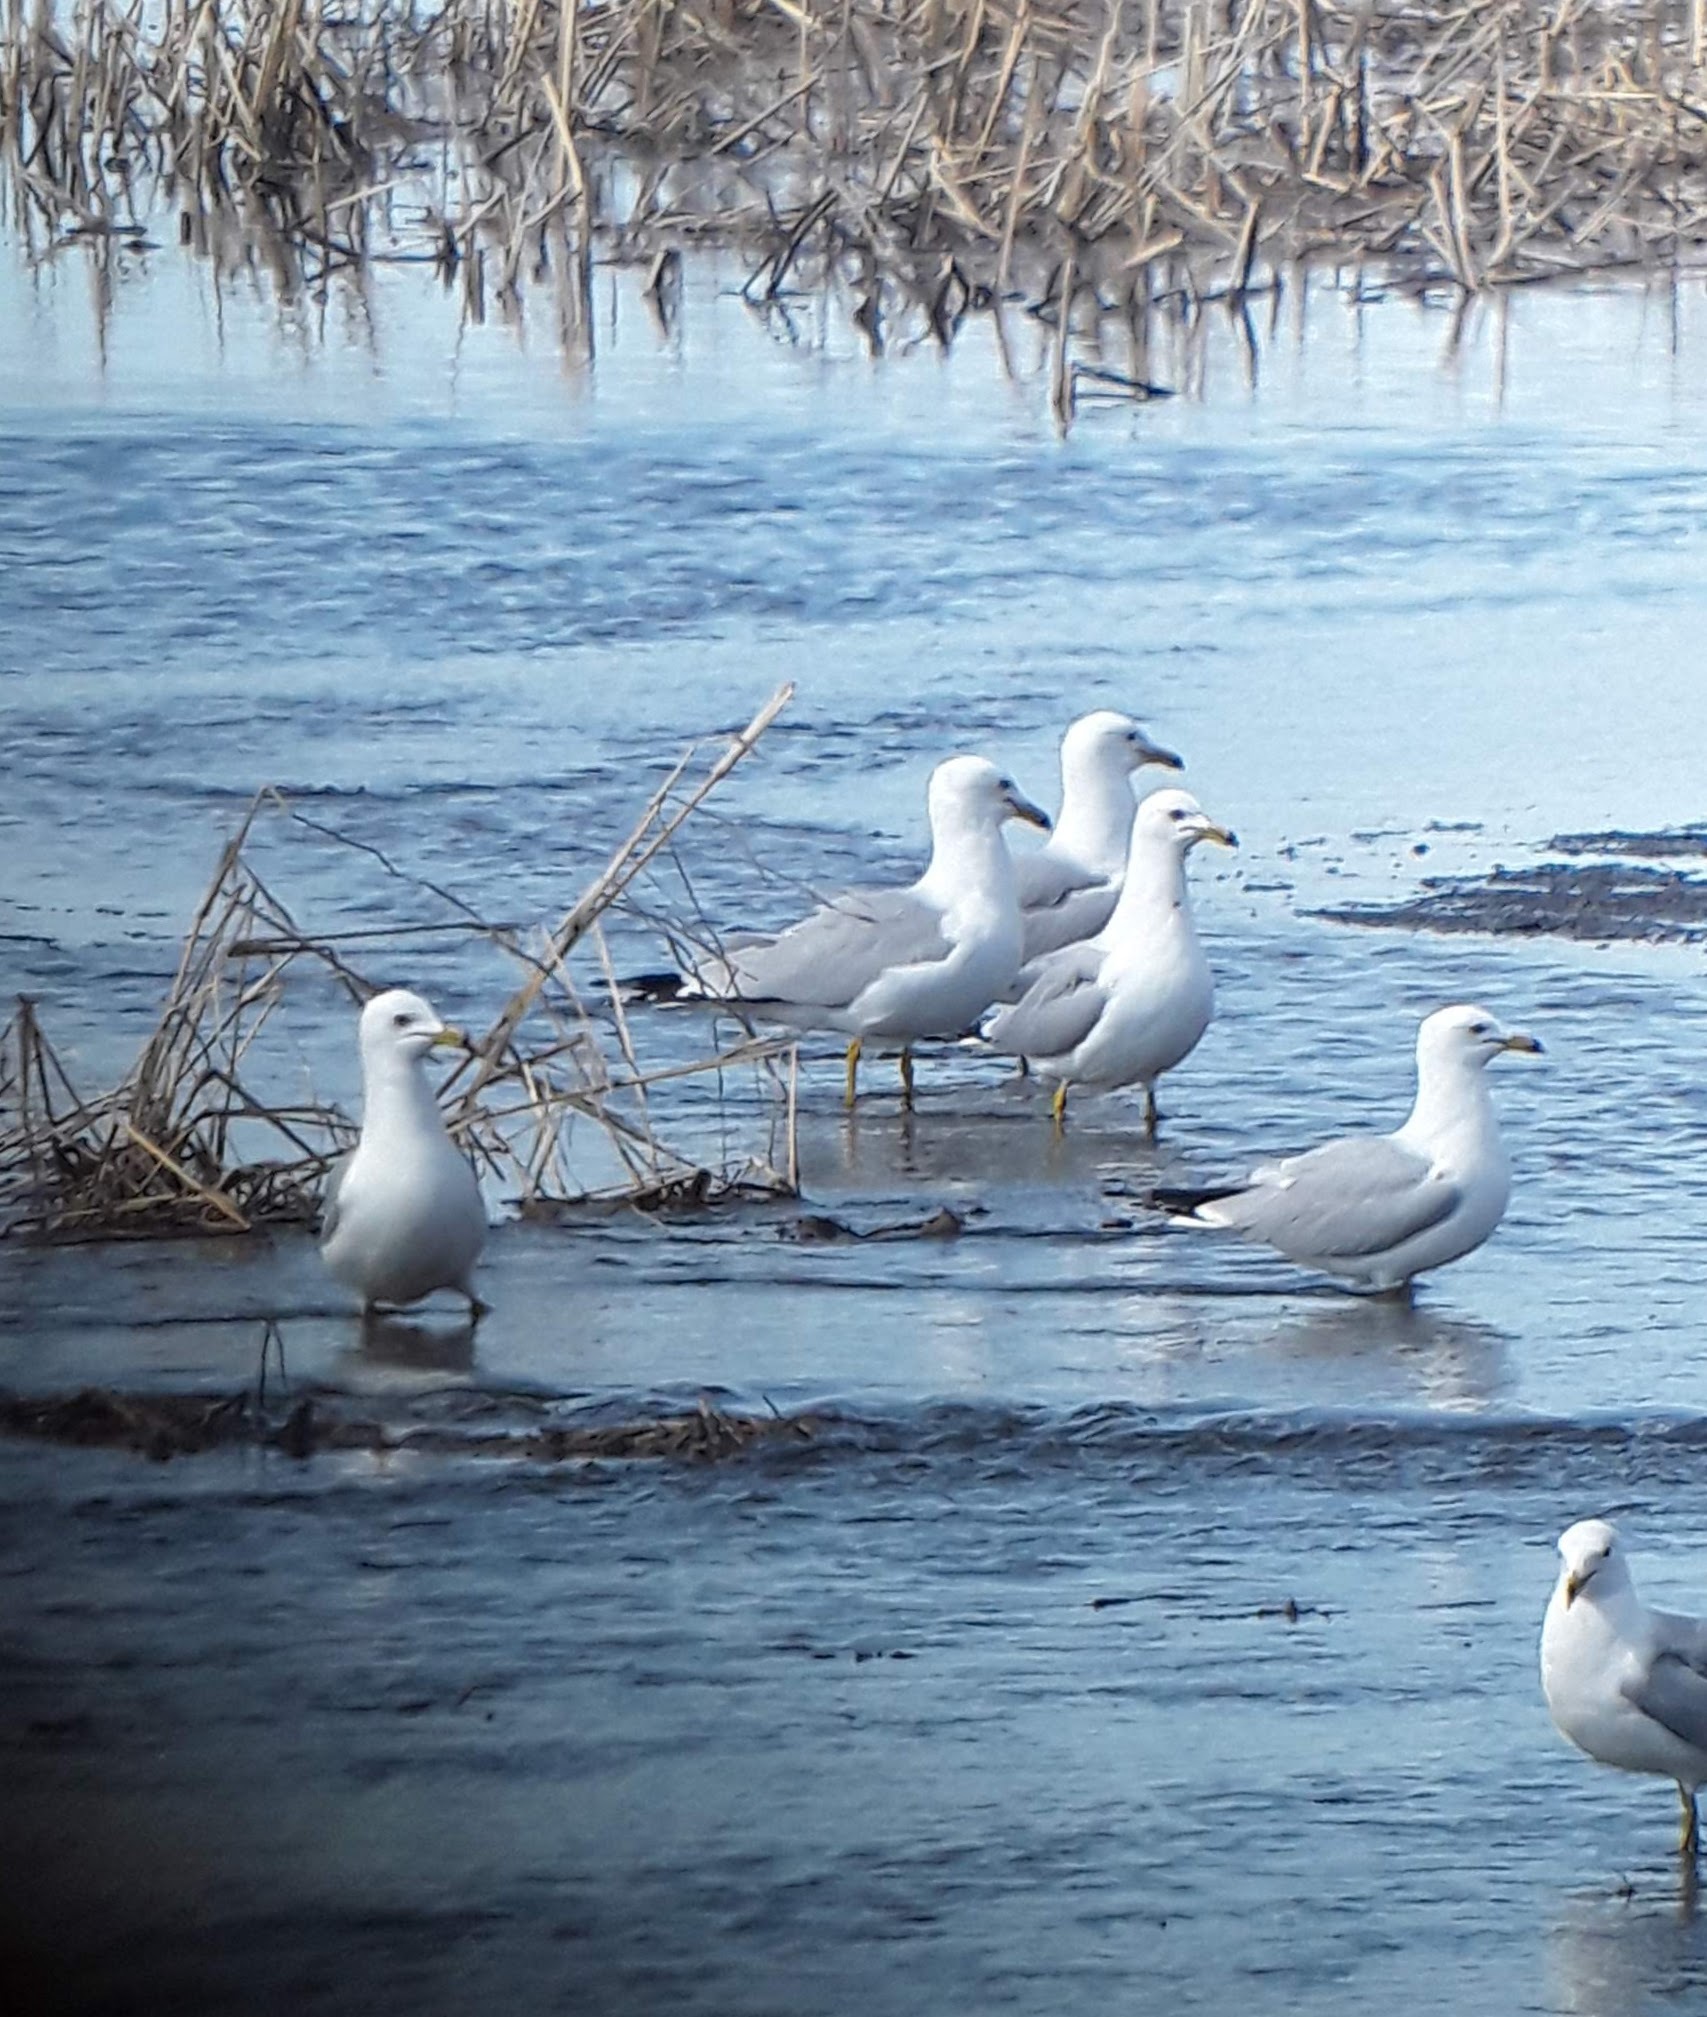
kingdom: Animalia
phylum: Chordata
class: Aves
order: Charadriiformes
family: Laridae
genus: Larus
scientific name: Larus delawarensis
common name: Ring-billed gull
